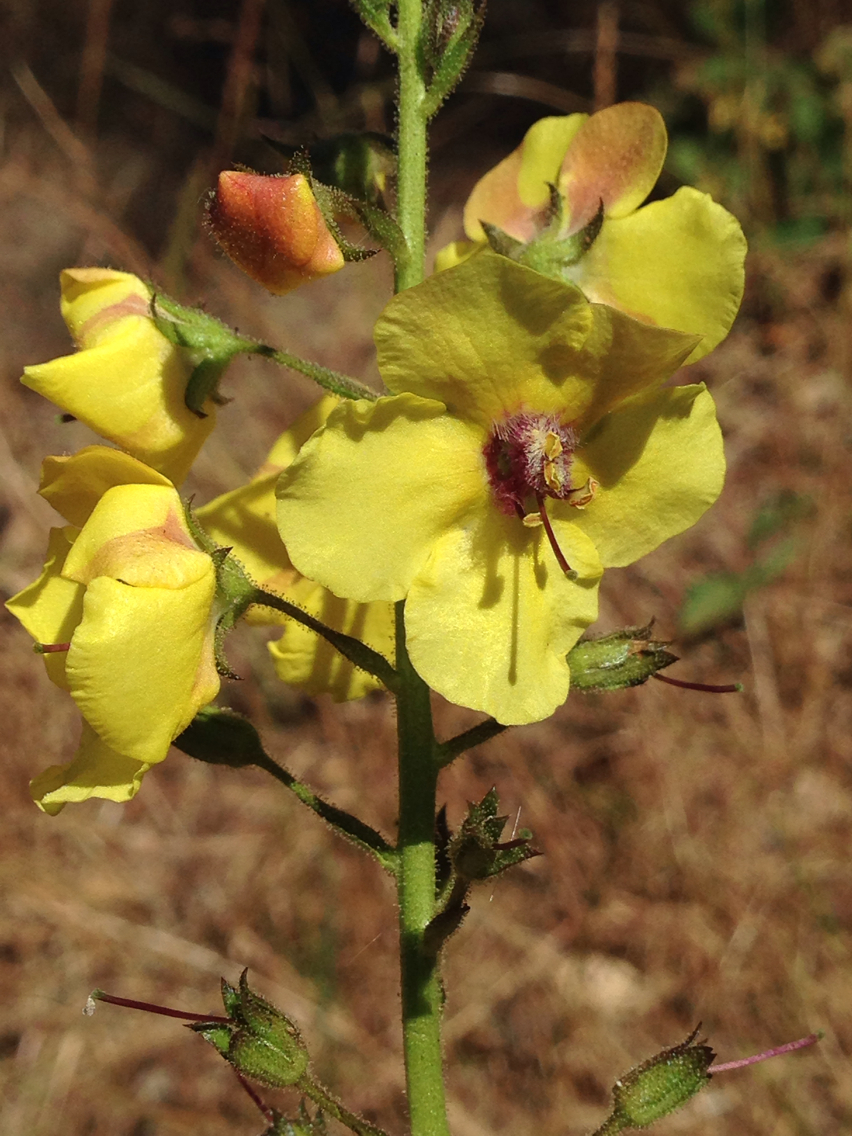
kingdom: Plantae
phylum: Tracheophyta
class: Magnoliopsida
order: Lamiales
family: Scrophulariaceae
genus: Verbascum
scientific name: Verbascum blattaria
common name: Moth mullein
